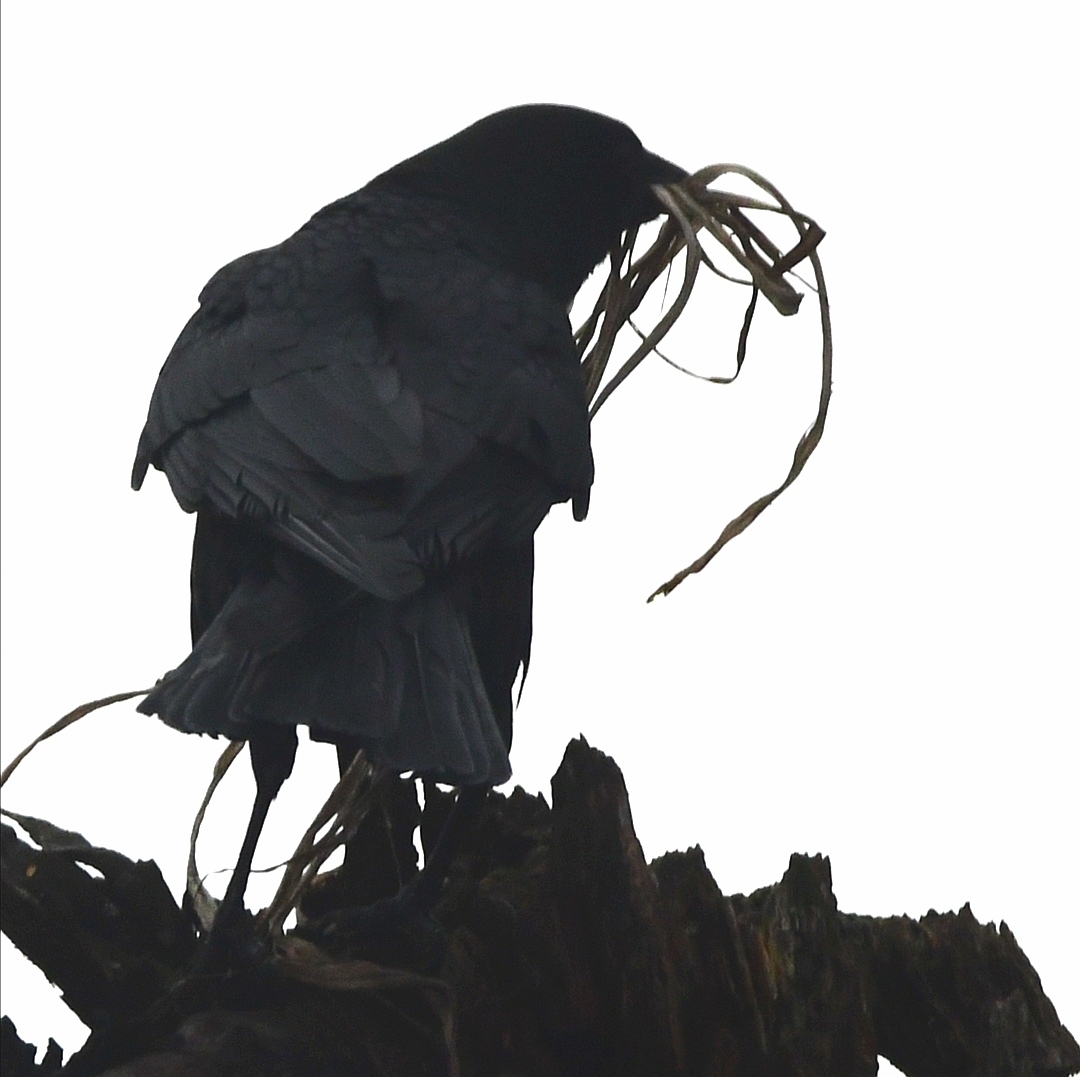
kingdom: Animalia
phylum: Chordata
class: Aves
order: Passeriformes
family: Corvidae
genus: Corvus
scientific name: Corvus corax
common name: Common raven
